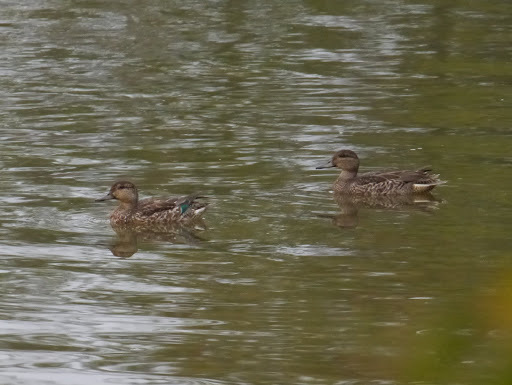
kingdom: Animalia
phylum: Chordata
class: Aves
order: Anseriformes
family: Anatidae
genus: Anas
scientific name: Anas crecca
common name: Eurasian teal
